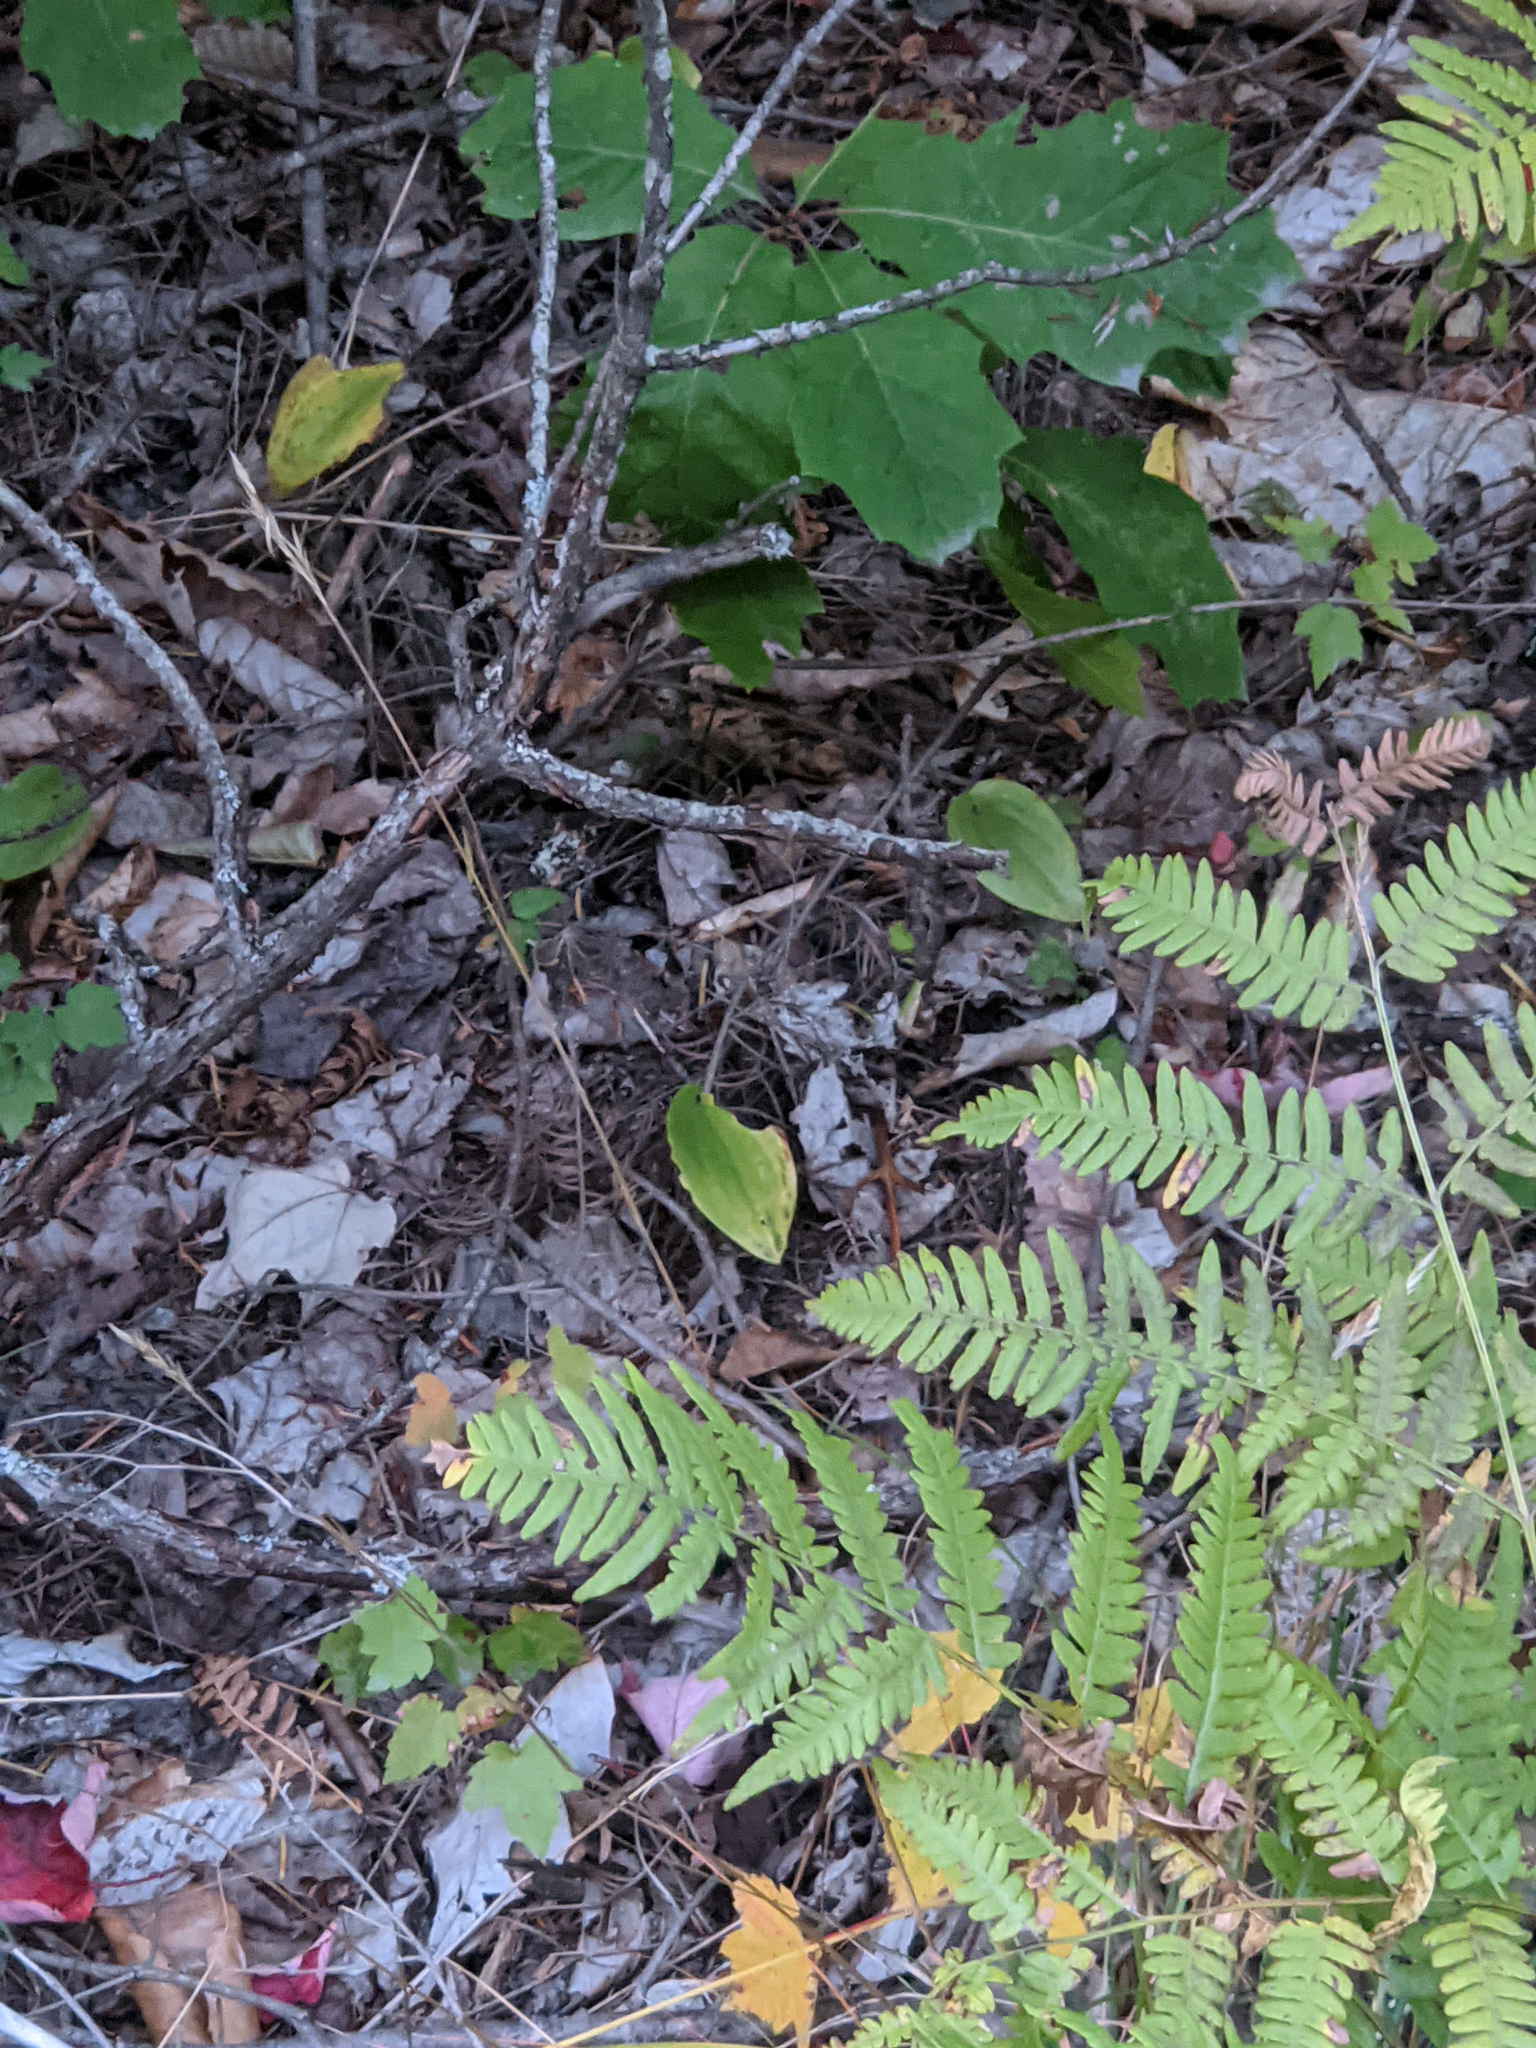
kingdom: Plantae
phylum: Tracheophyta
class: Liliopsida
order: Asparagales
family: Asparagaceae
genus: Maianthemum
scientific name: Maianthemum canadense
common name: False lily-of-the-valley
